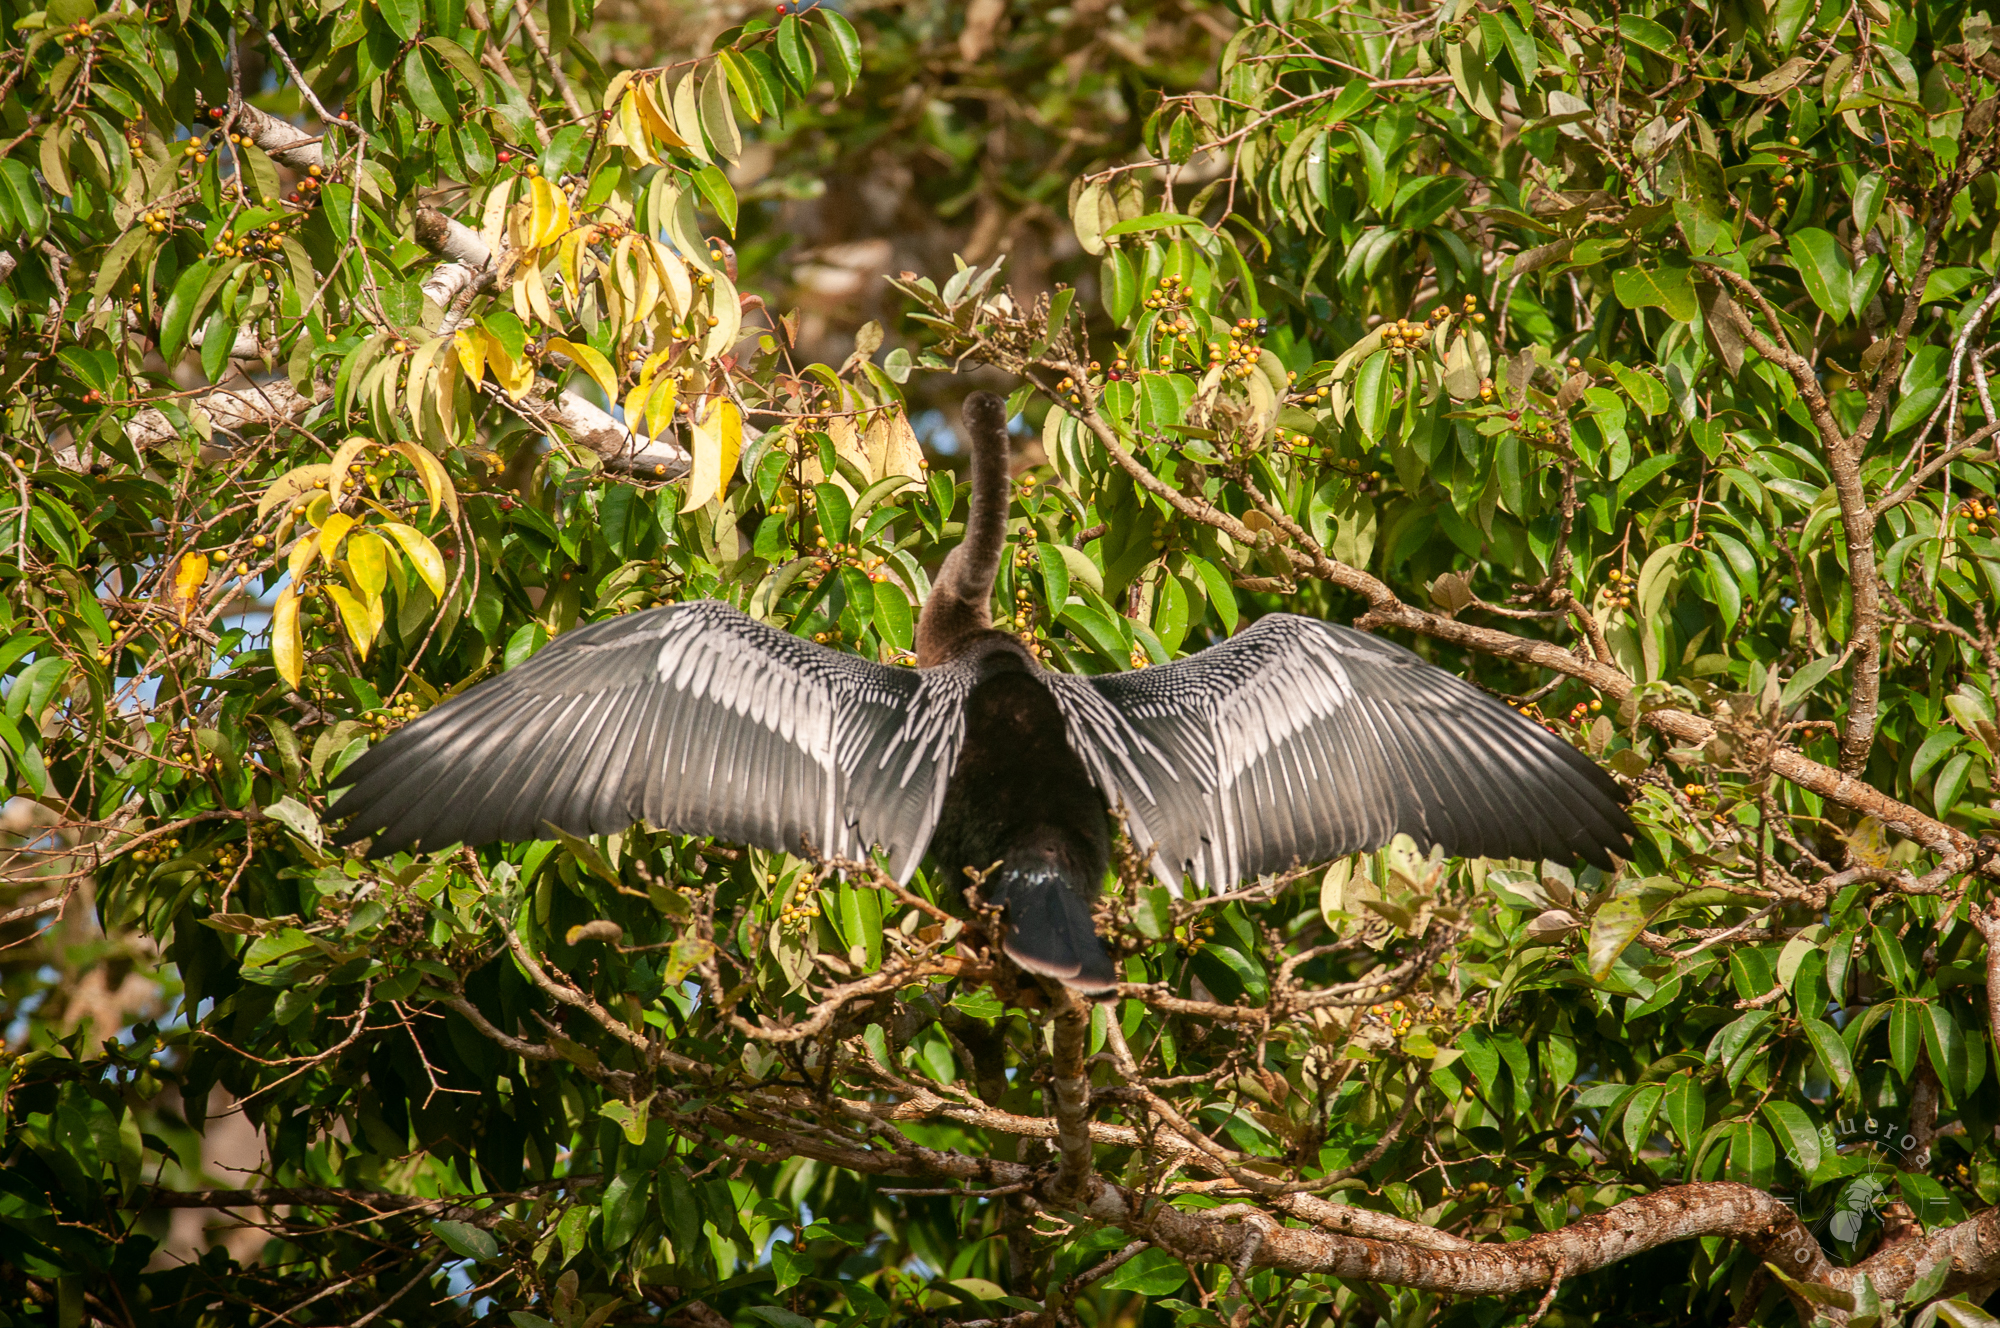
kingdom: Animalia
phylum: Chordata
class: Aves
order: Suliformes
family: Anhingidae
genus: Anhinga
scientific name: Anhinga anhinga
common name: Anhinga
